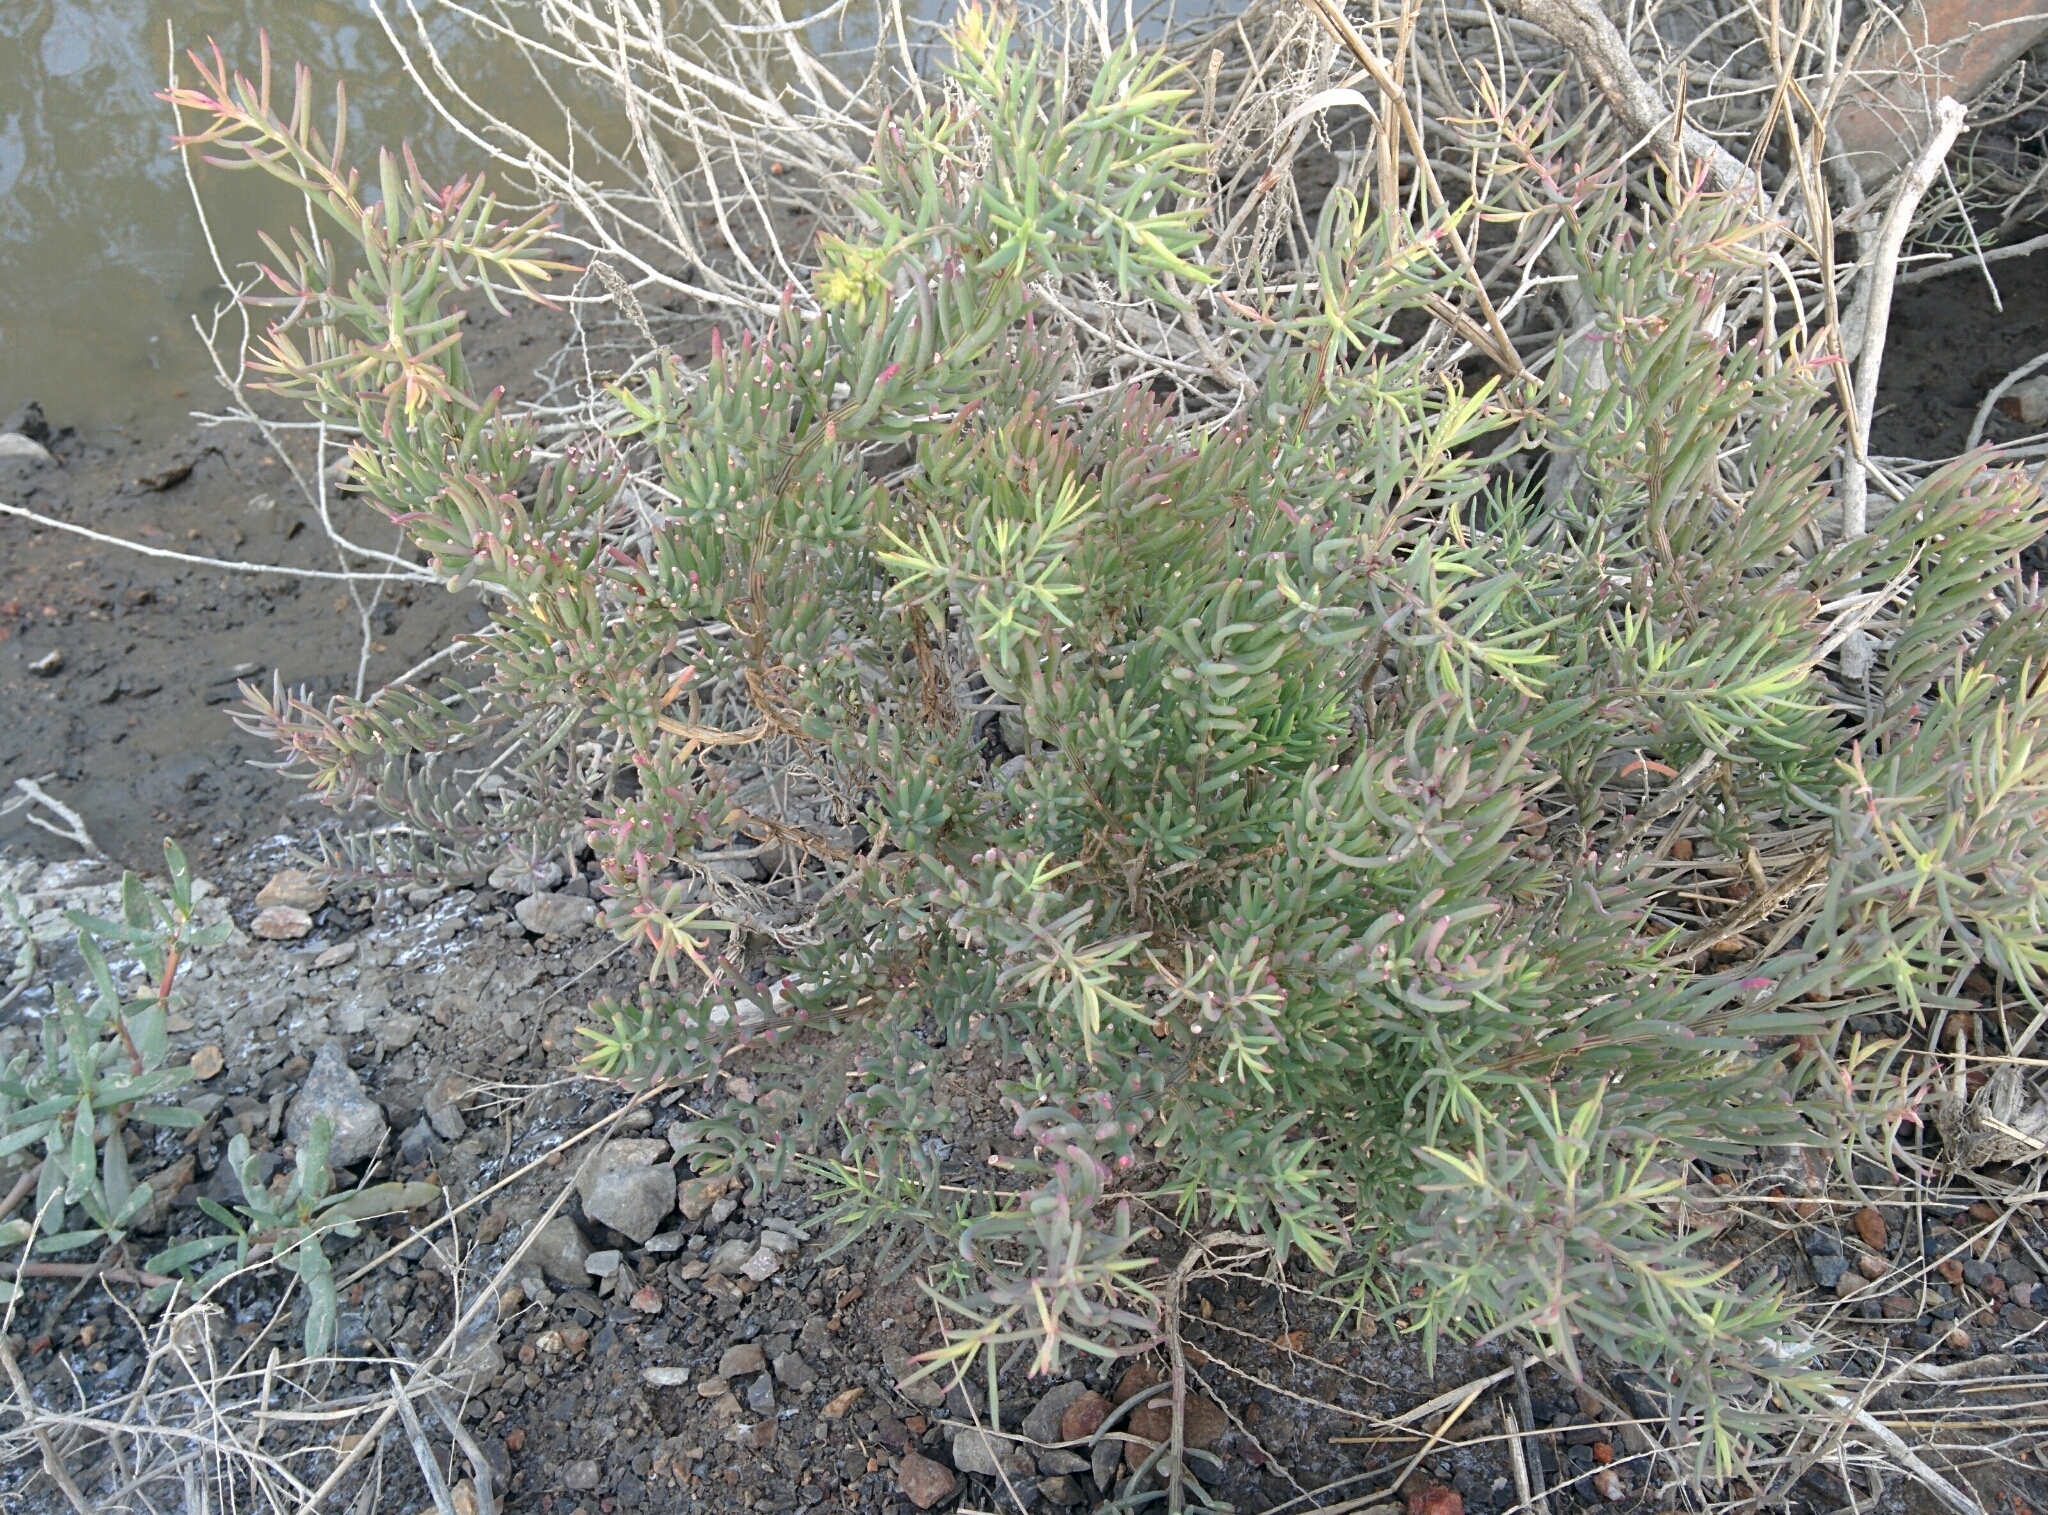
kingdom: Plantae
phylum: Tracheophyta
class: Magnoliopsida
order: Caryophyllales
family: Amaranthaceae
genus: Suaeda
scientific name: Suaeda maritima
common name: Annual sea-blite
